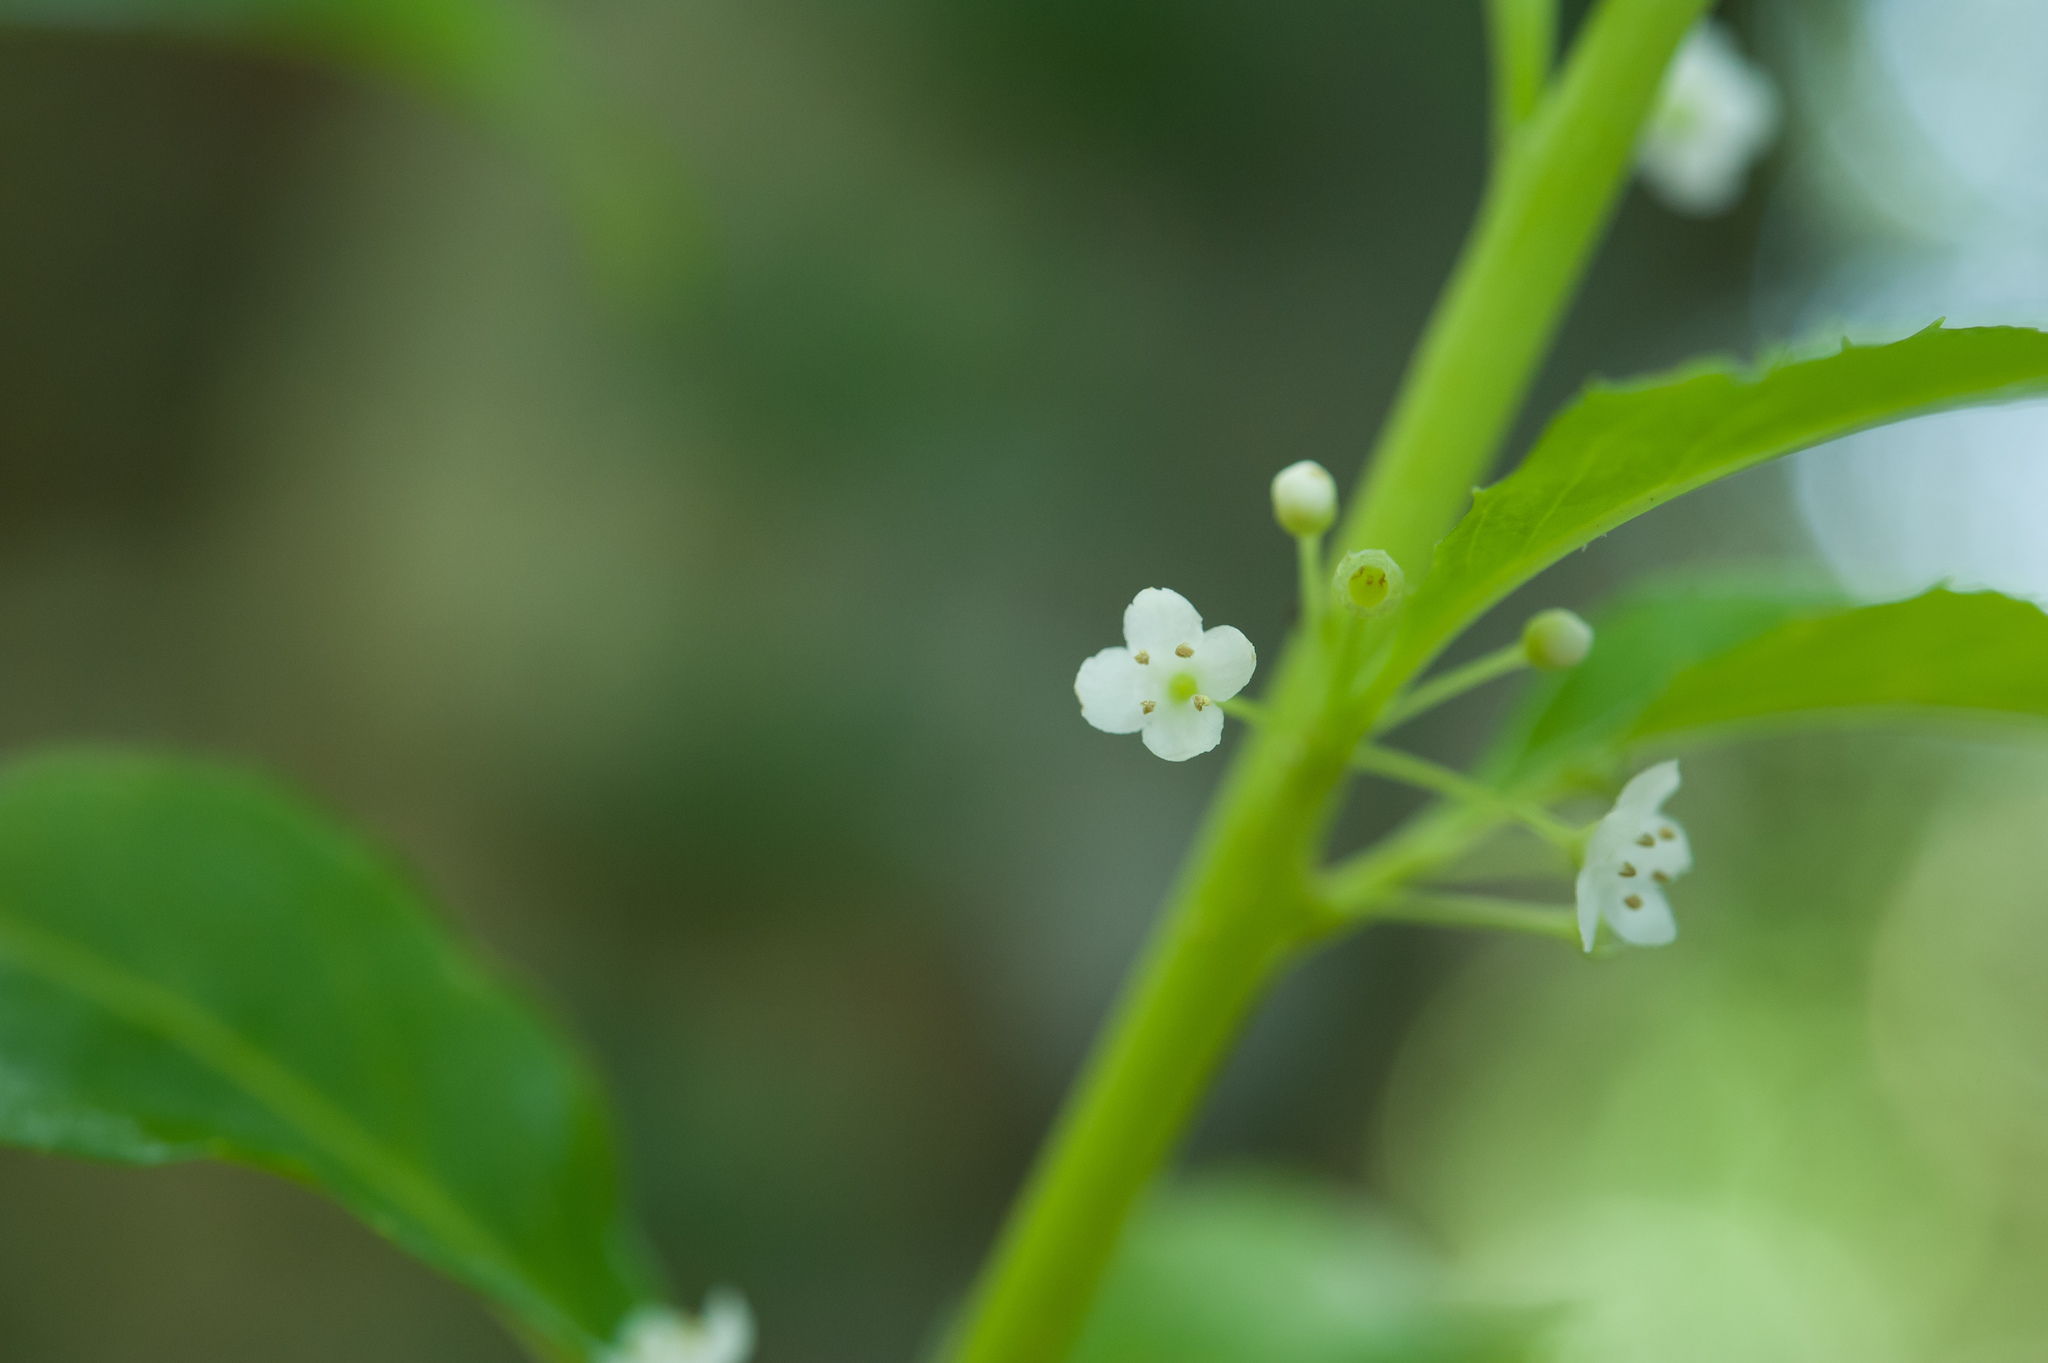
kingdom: Plantae
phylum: Tracheophyta
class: Magnoliopsida
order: Aquifoliales
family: Aquifoliaceae
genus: Ilex
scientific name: Ilex kusanoi
